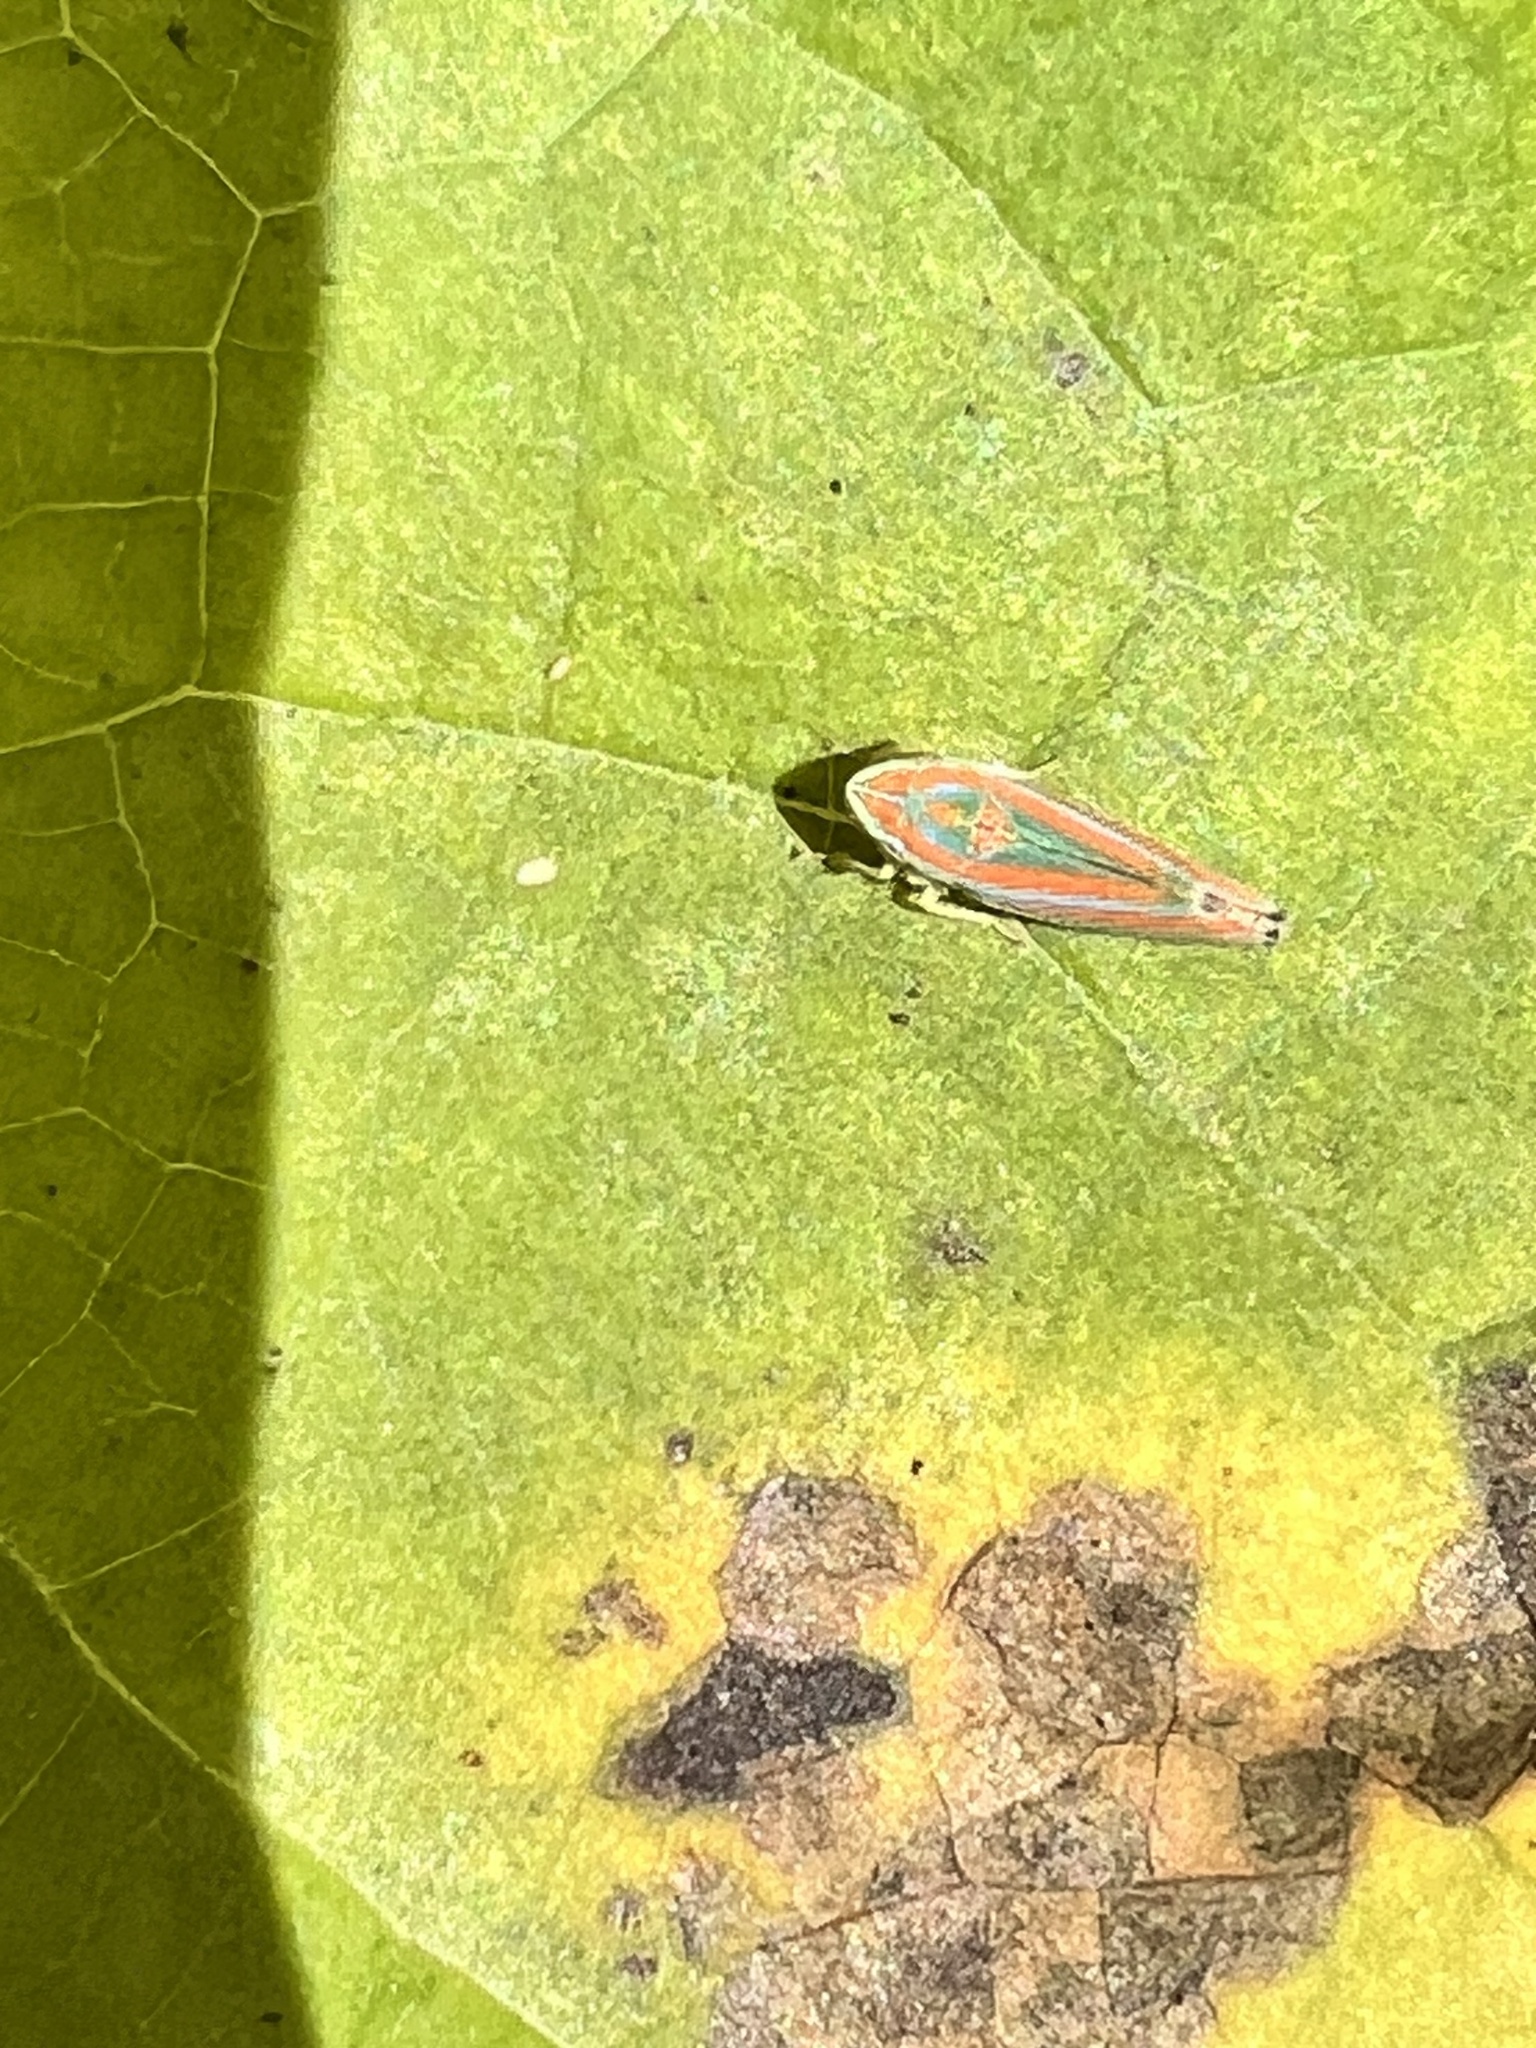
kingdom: Animalia
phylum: Arthropoda
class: Insecta
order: Hemiptera
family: Cicadellidae
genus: Graphocephala
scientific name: Graphocephala versuta
